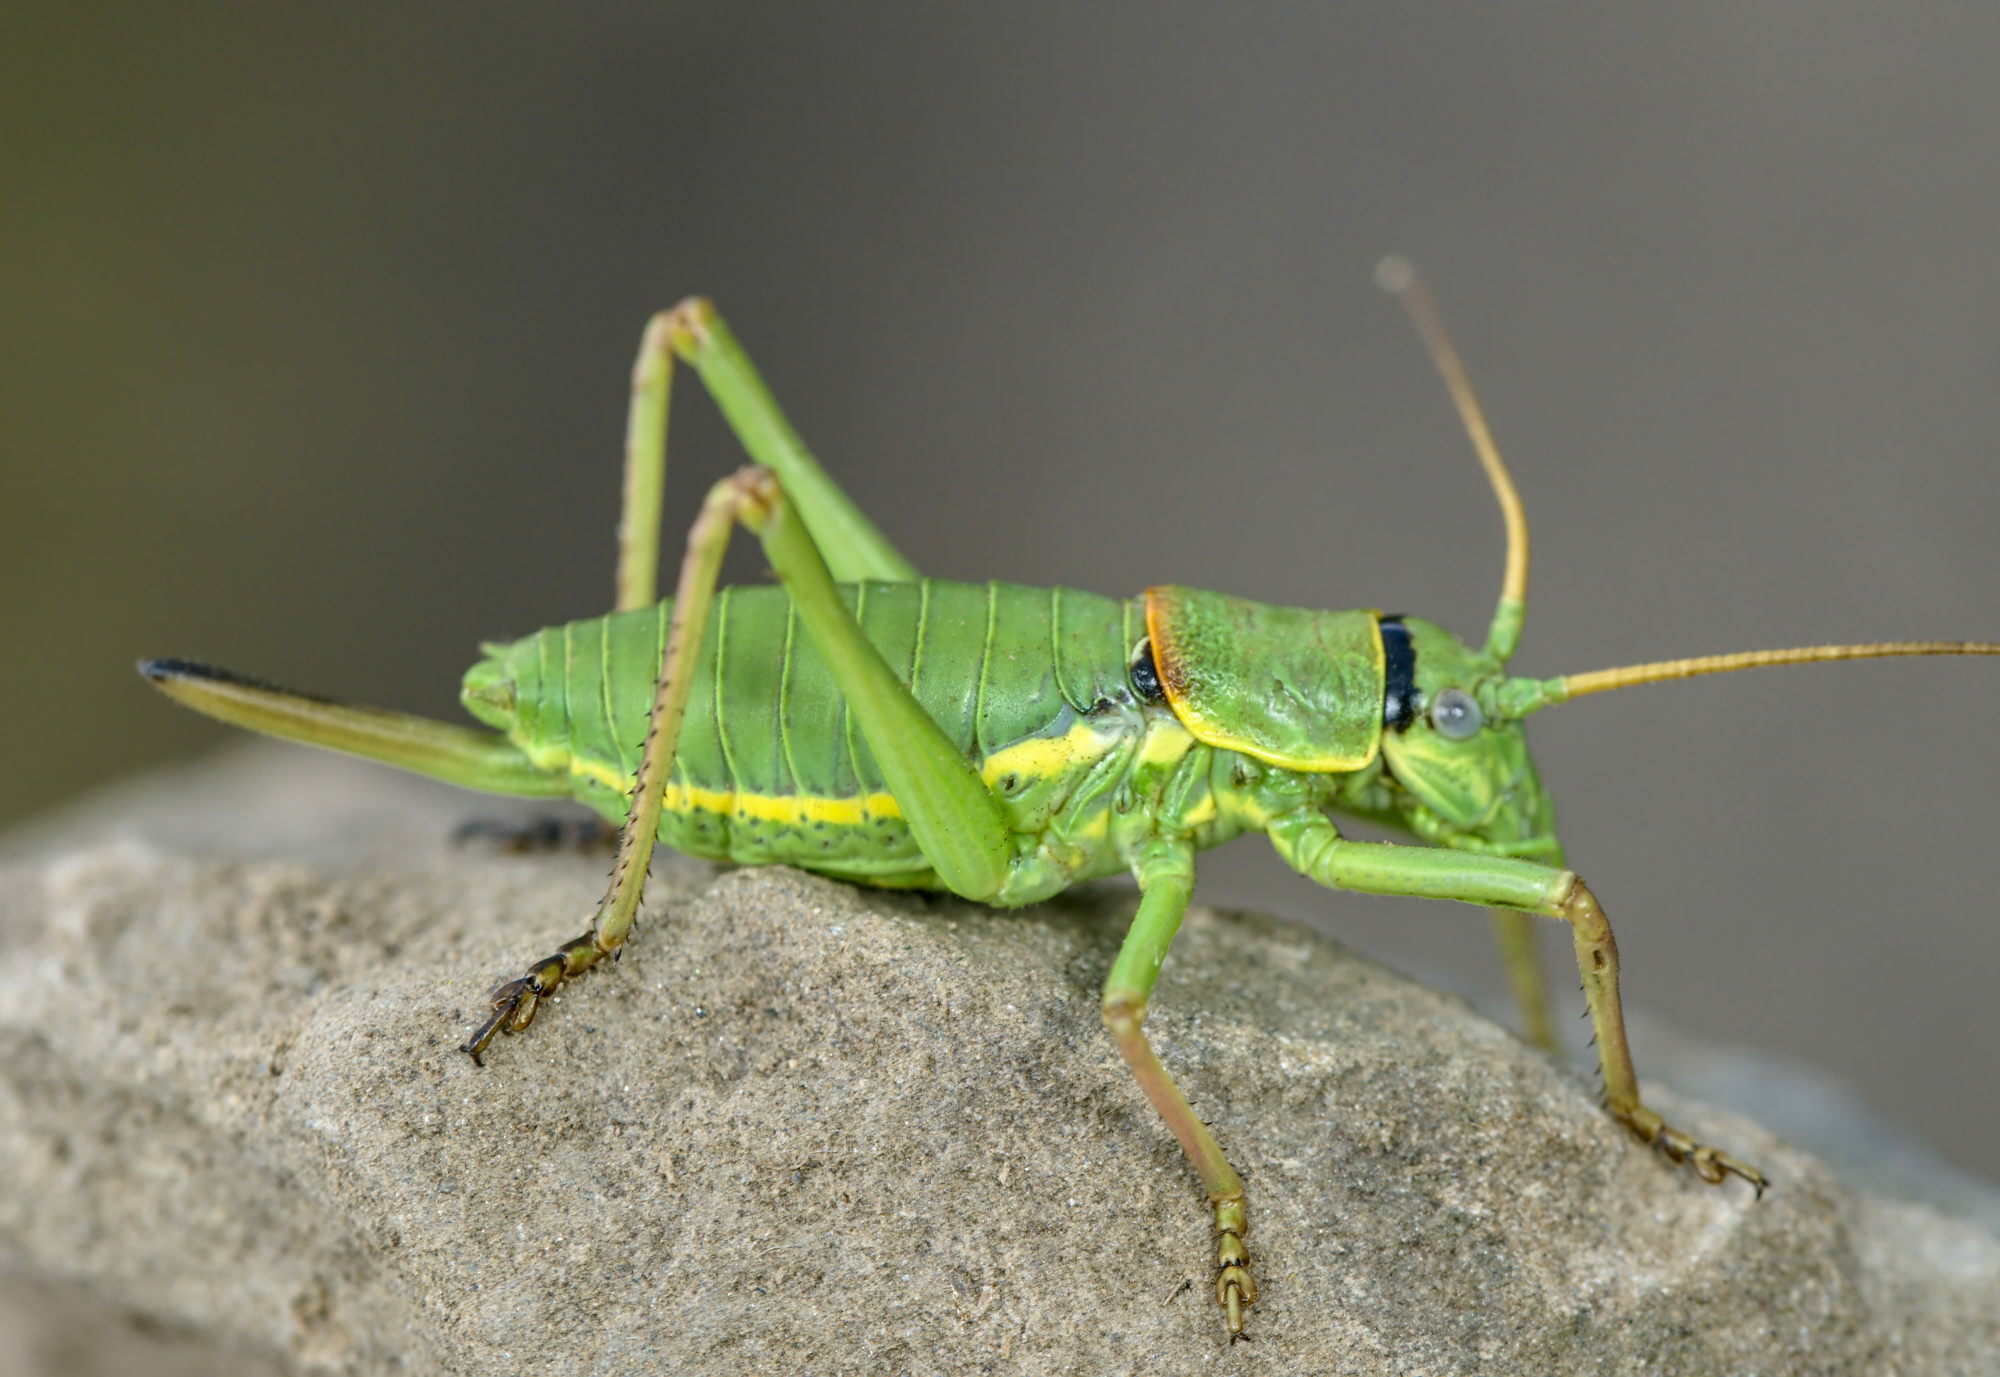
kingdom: Animalia
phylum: Arthropoda
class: Insecta
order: Orthoptera
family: Tettigoniidae
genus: Ephippiger
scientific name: Ephippiger carlottae
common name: Carlotta's saddle bush-cricket
